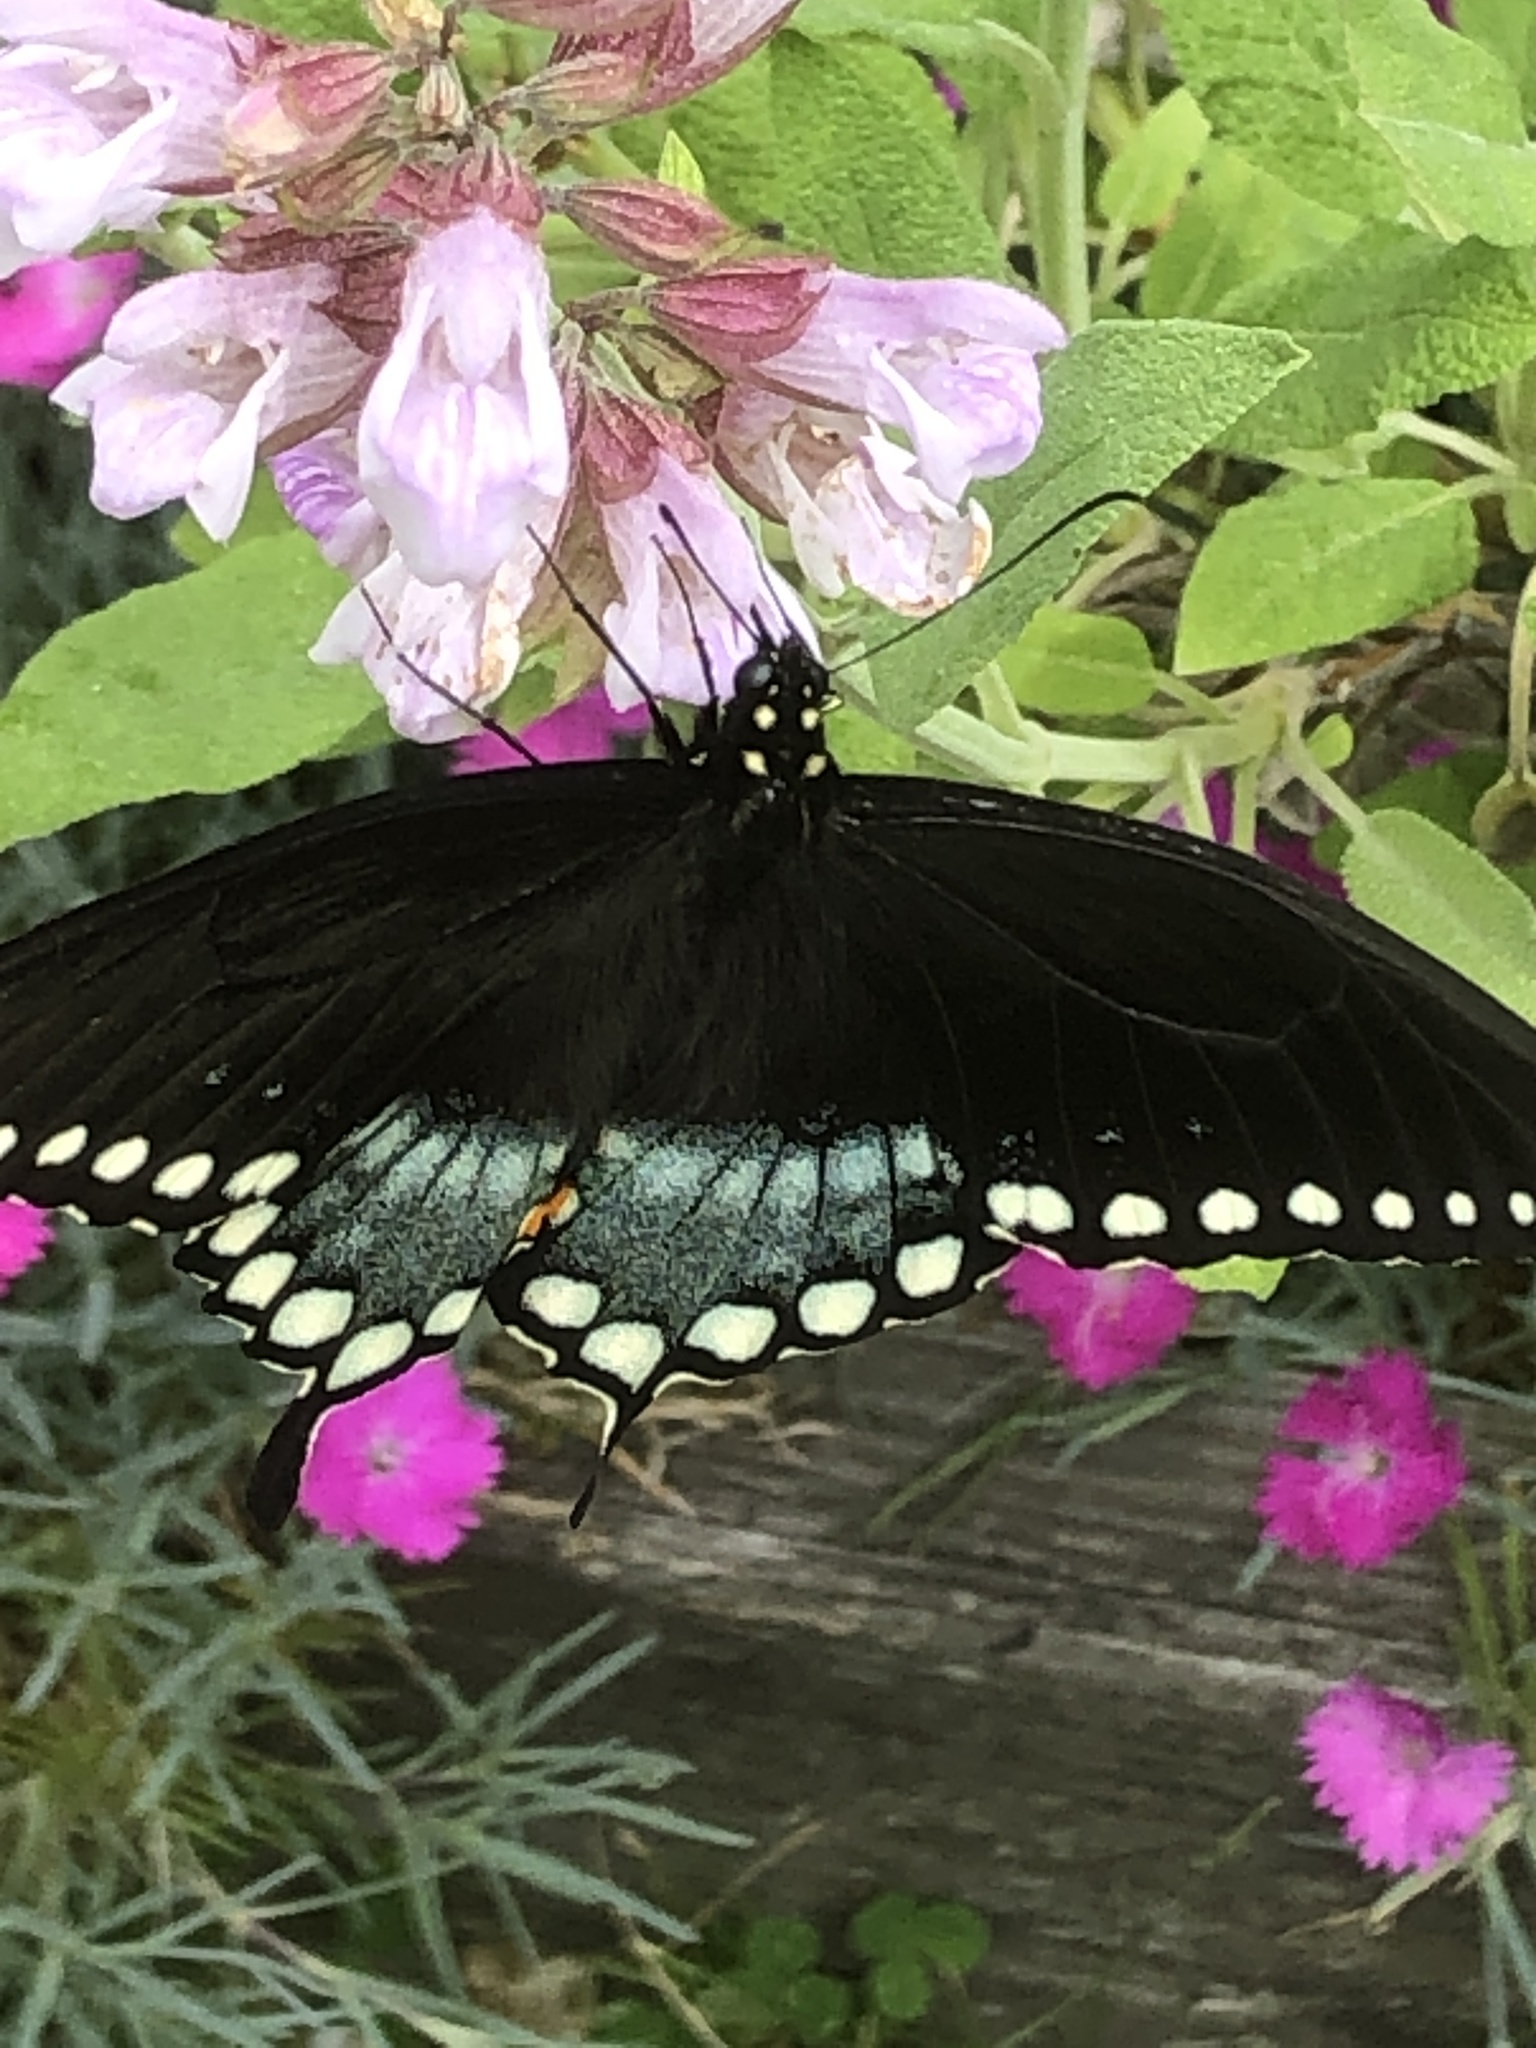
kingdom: Animalia
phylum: Arthropoda
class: Insecta
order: Lepidoptera
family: Papilionidae
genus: Papilio
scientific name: Papilio troilus
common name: Spicebush swallowtail
